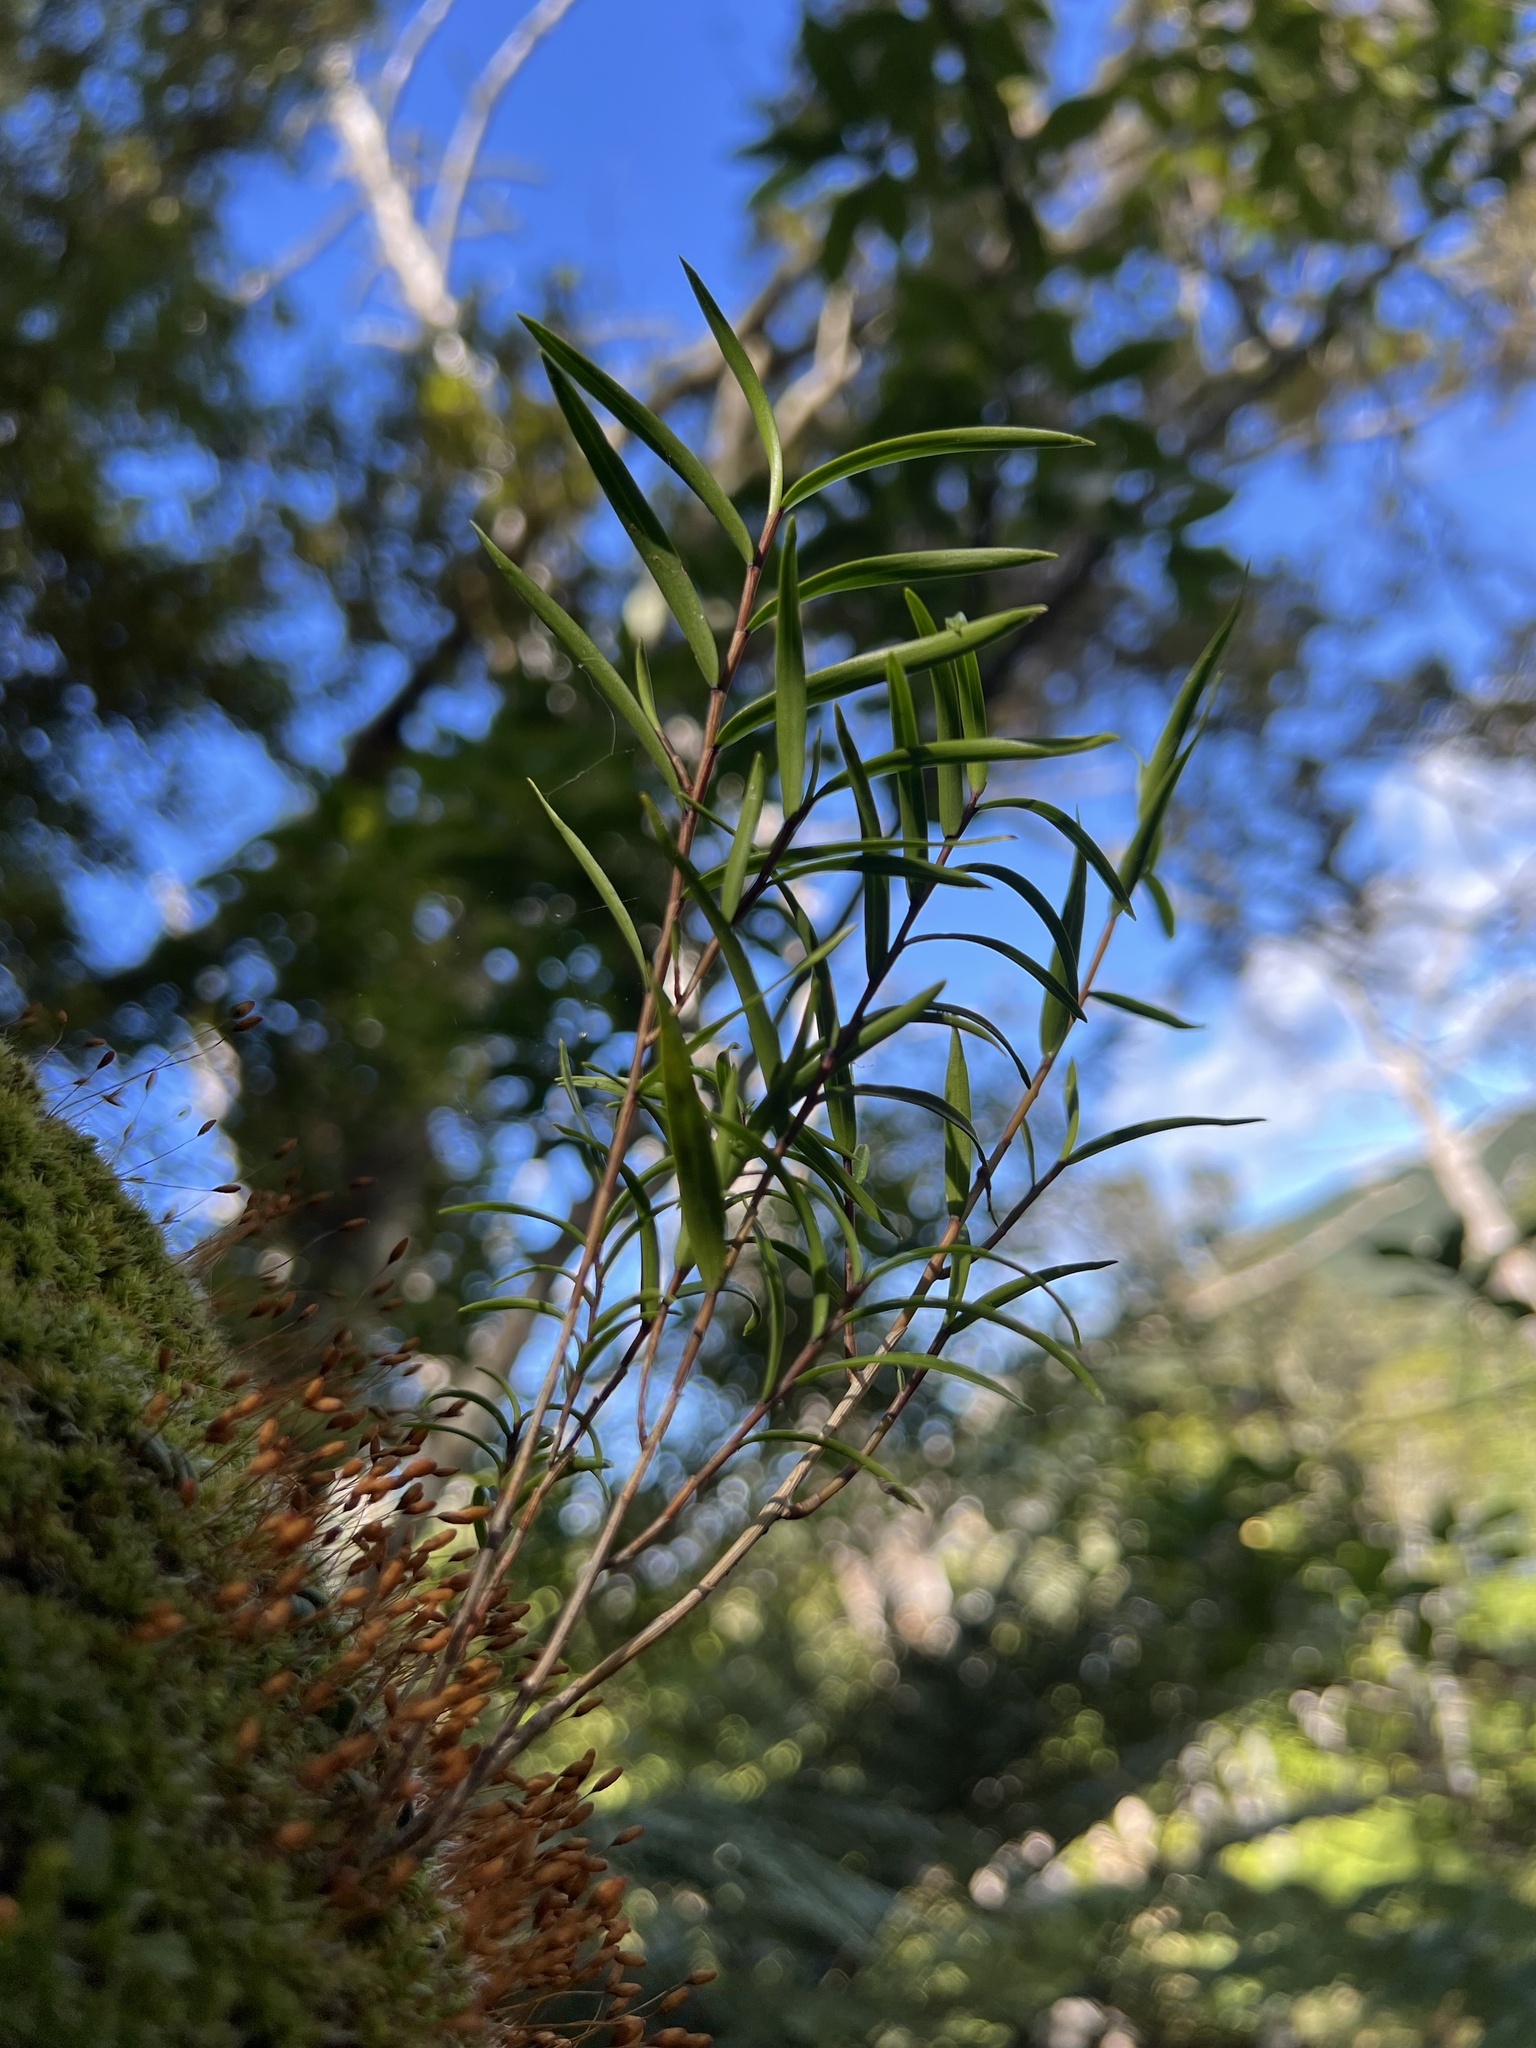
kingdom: Plantae
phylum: Tracheophyta
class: Liliopsida
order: Asparagales
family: Orchidaceae
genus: Dendrobium
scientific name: Dendrobium cunninghamii
